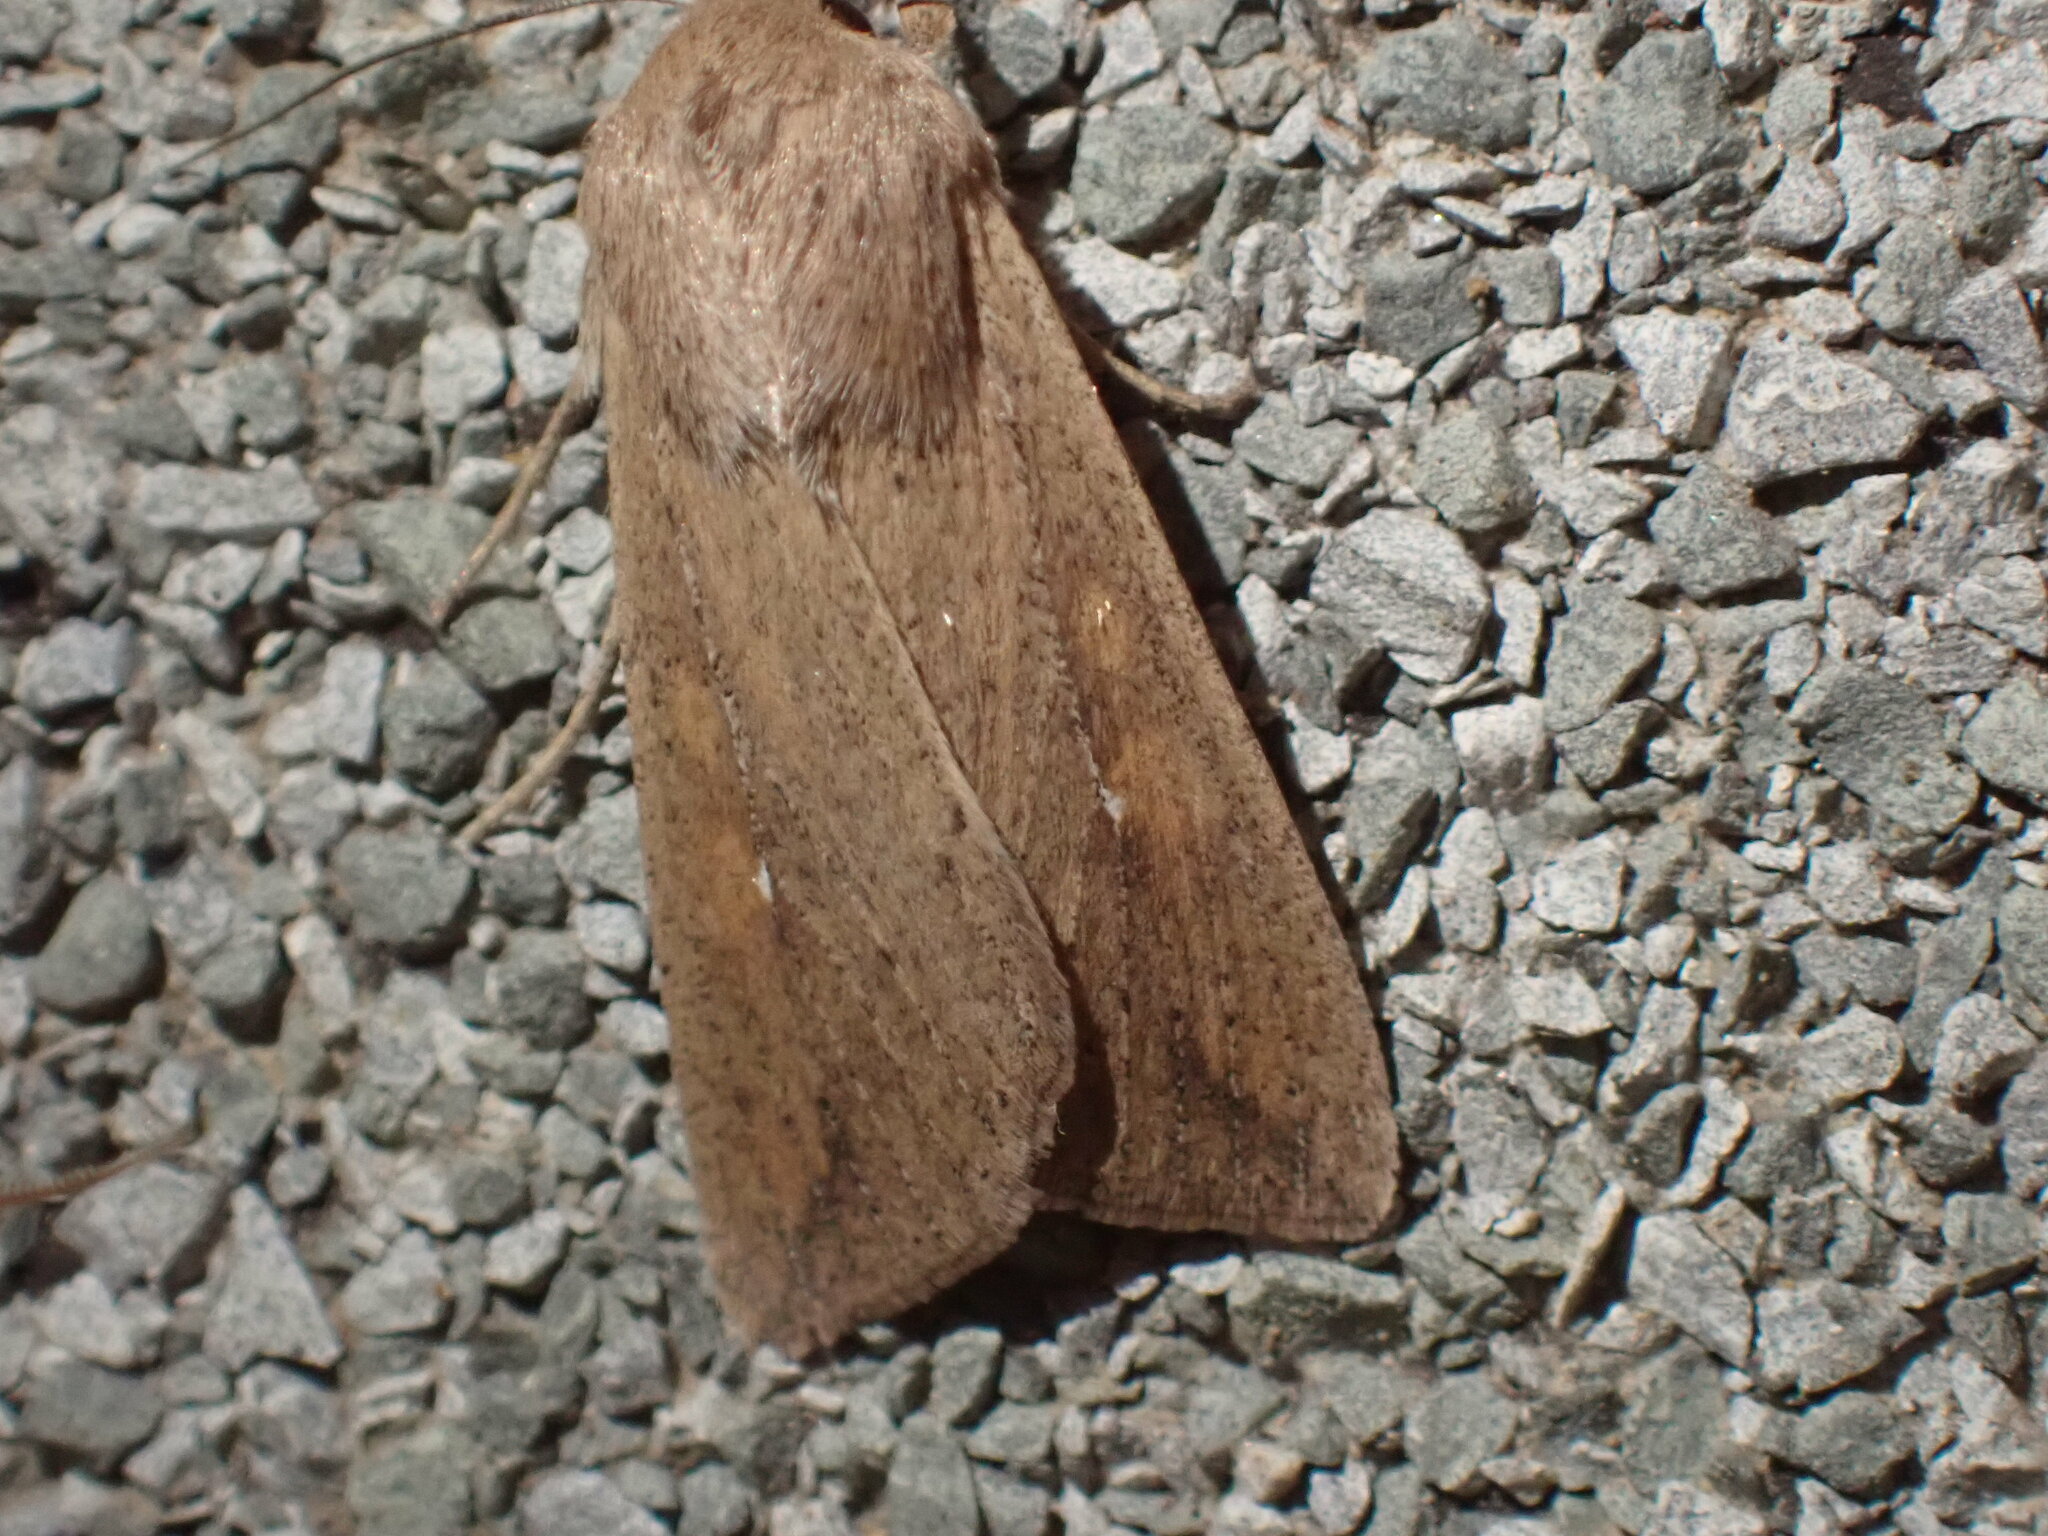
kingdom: Animalia
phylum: Arthropoda
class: Insecta
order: Lepidoptera
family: Noctuidae
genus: Mythimna
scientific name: Mythimna unipuncta
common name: White-speck
